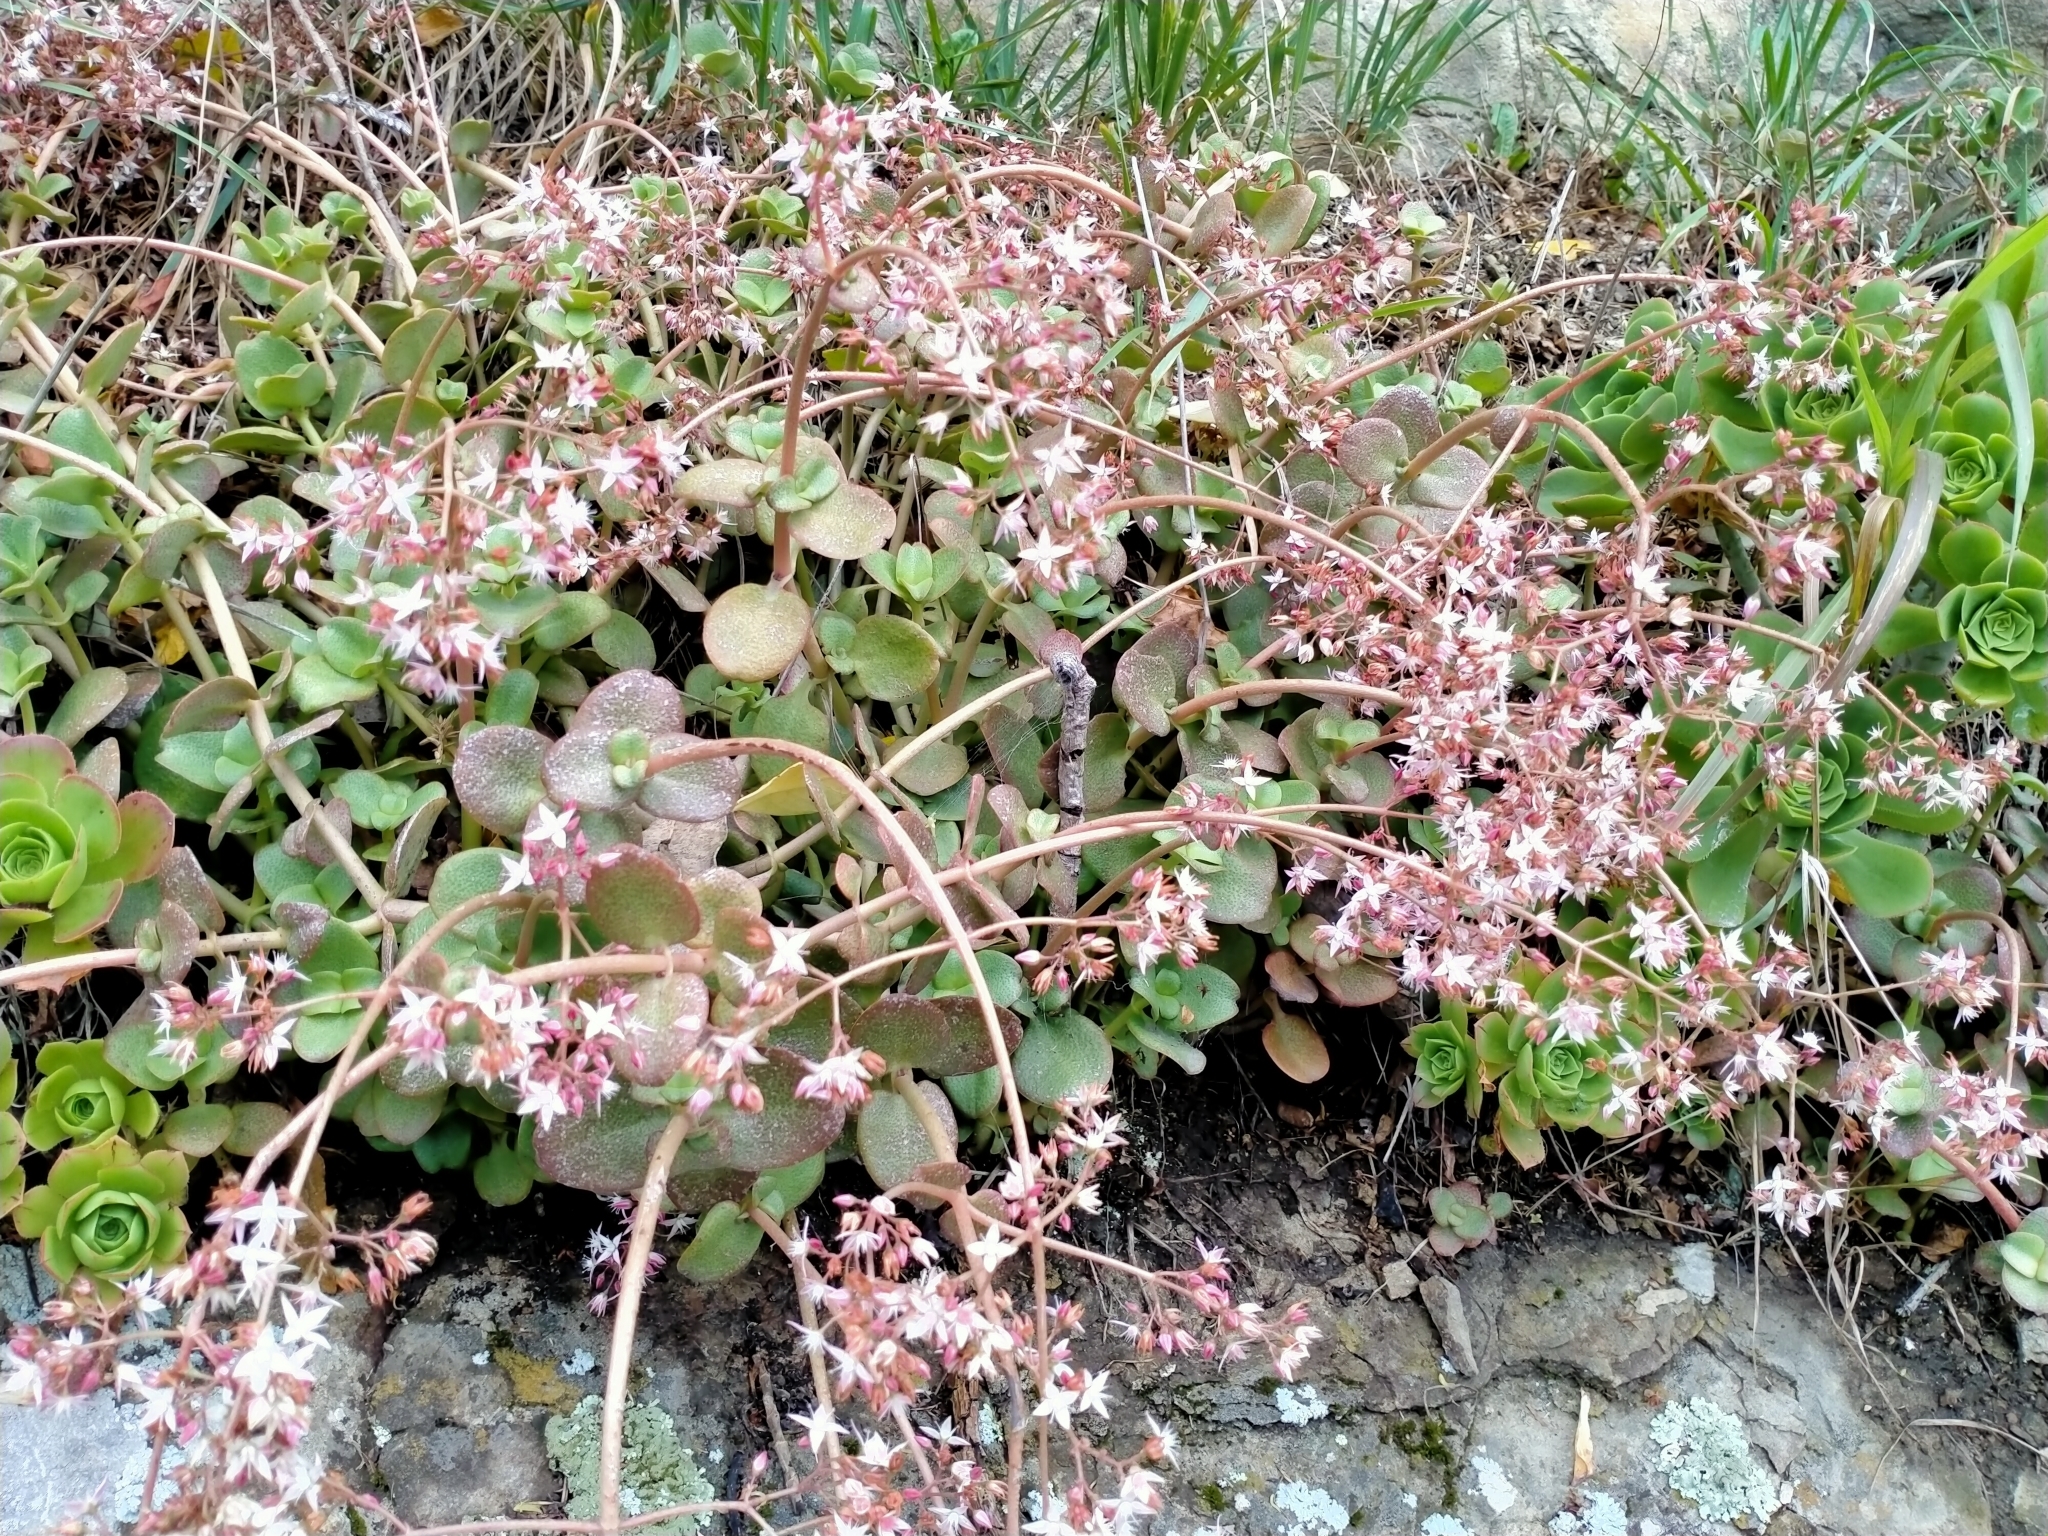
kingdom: Plantae
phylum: Tracheophyta
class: Magnoliopsida
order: Saxifragales
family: Crassulaceae
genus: Crassula
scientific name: Crassula multicava
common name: Cape province pygmyweed
